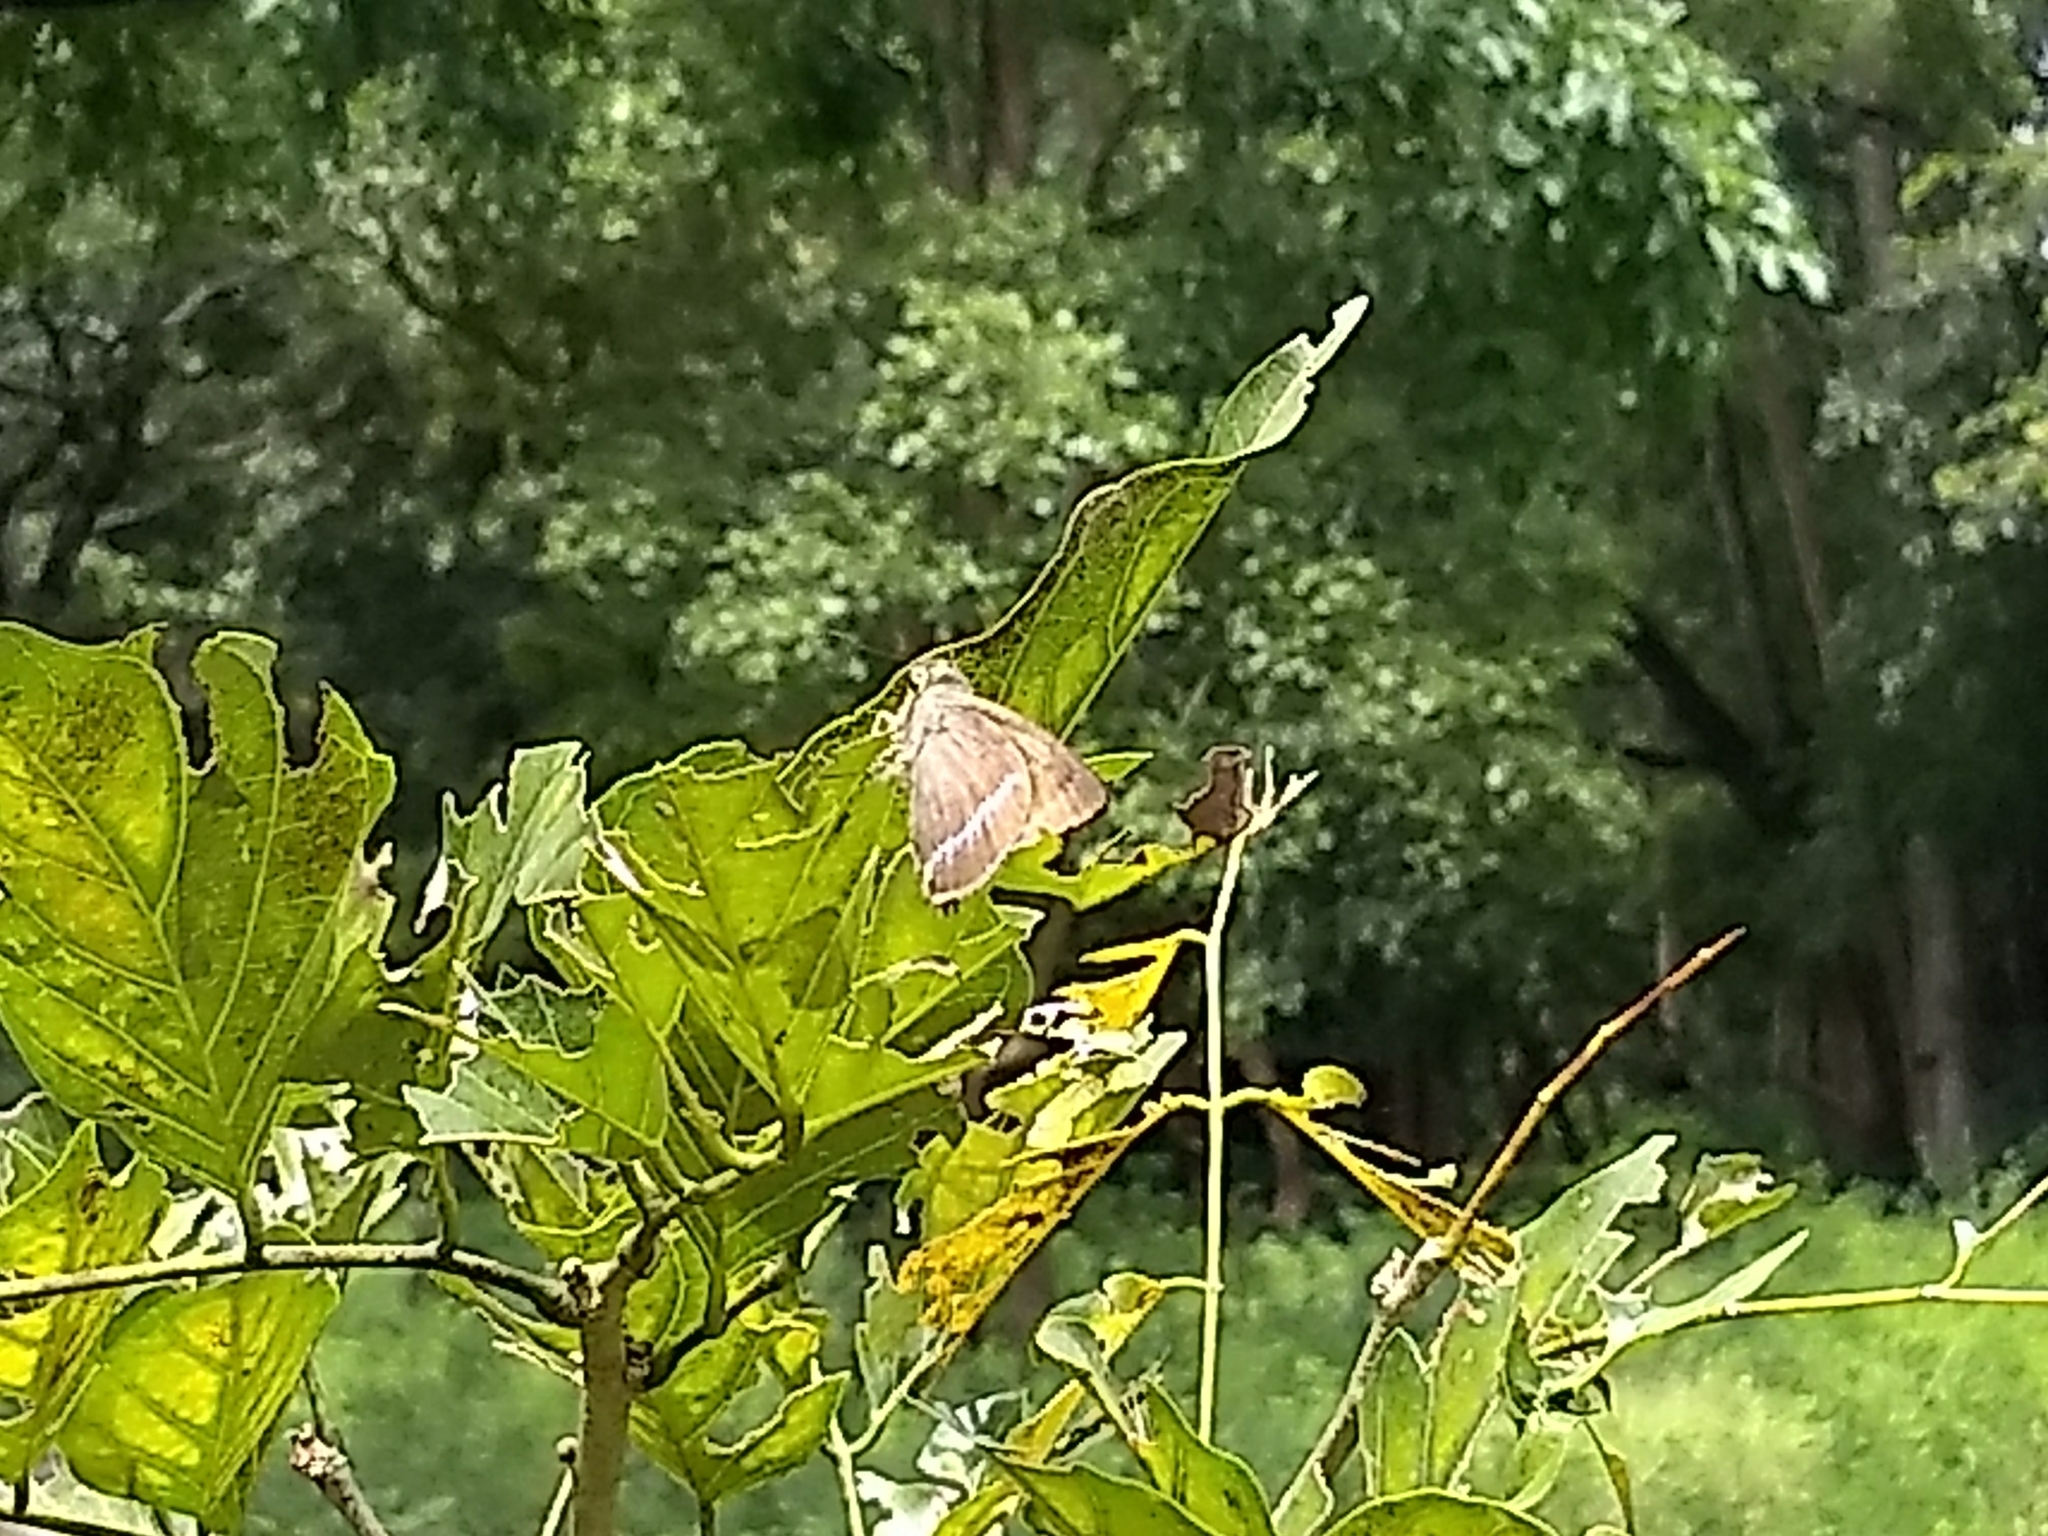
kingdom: Animalia
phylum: Arthropoda
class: Insecta
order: Lepidoptera
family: Hesperiidae
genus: Hasora
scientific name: Hasora chromus
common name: Common banded awl
